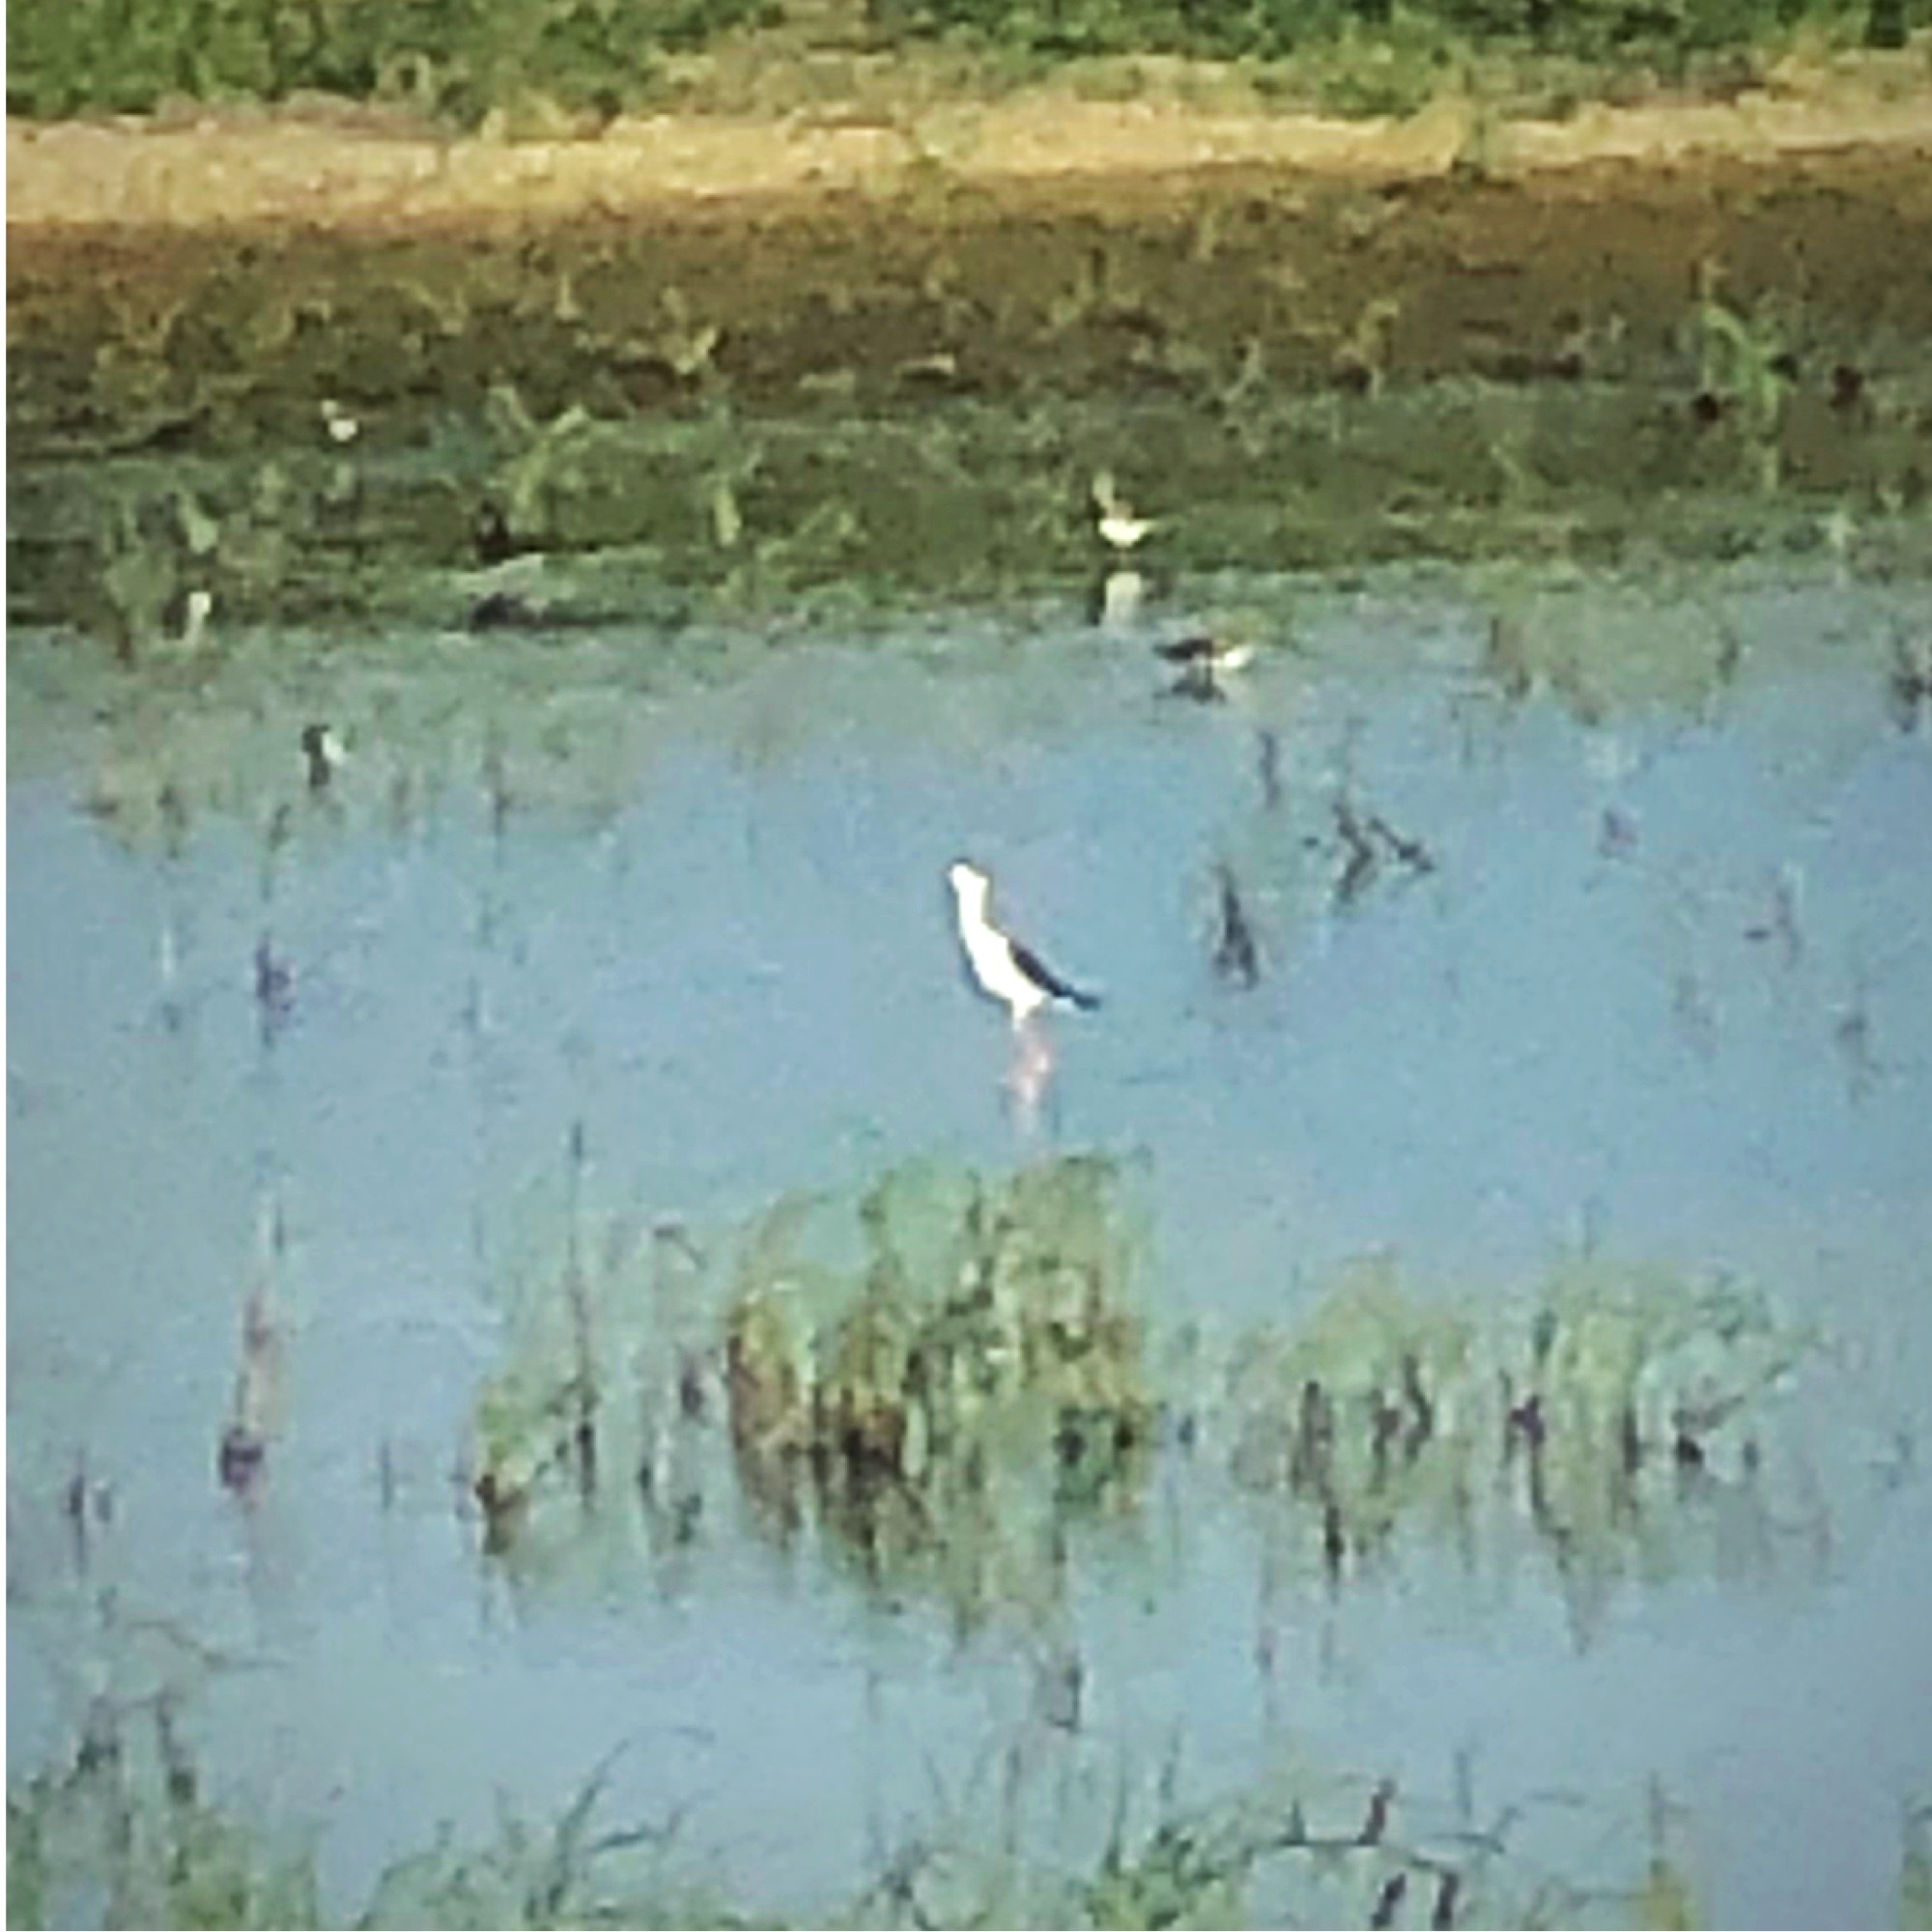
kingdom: Animalia
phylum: Chordata
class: Aves
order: Charadriiformes
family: Recurvirostridae
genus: Himantopus
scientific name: Himantopus mexicanus
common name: Black-necked stilt
